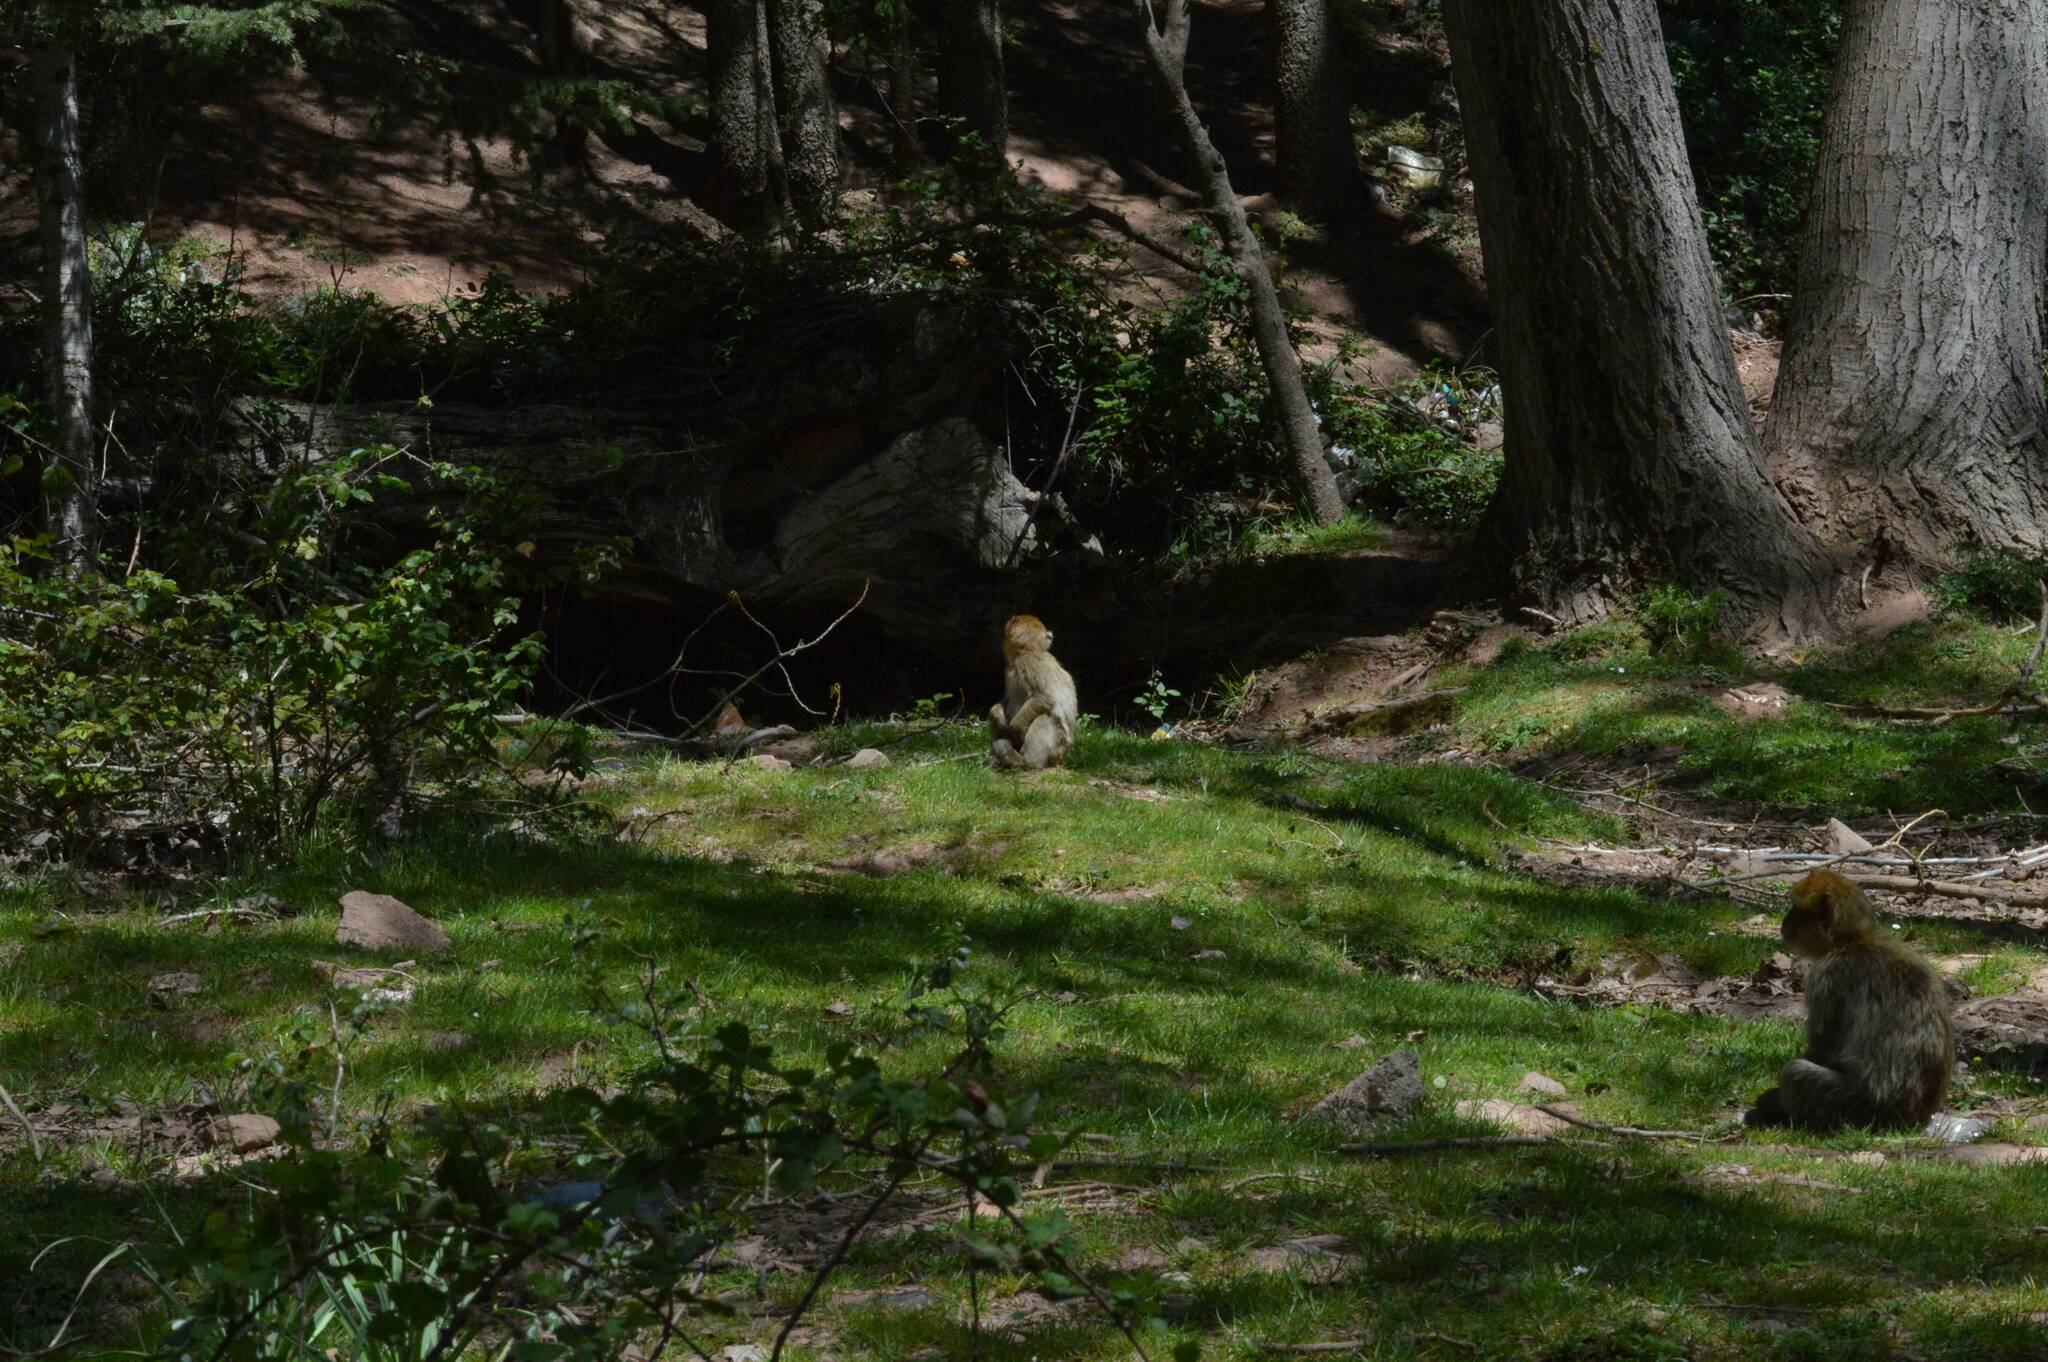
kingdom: Animalia
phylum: Chordata
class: Mammalia
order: Primates
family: Cercopithecidae
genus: Macaca
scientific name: Macaca sylvanus
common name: Barbary macaque
